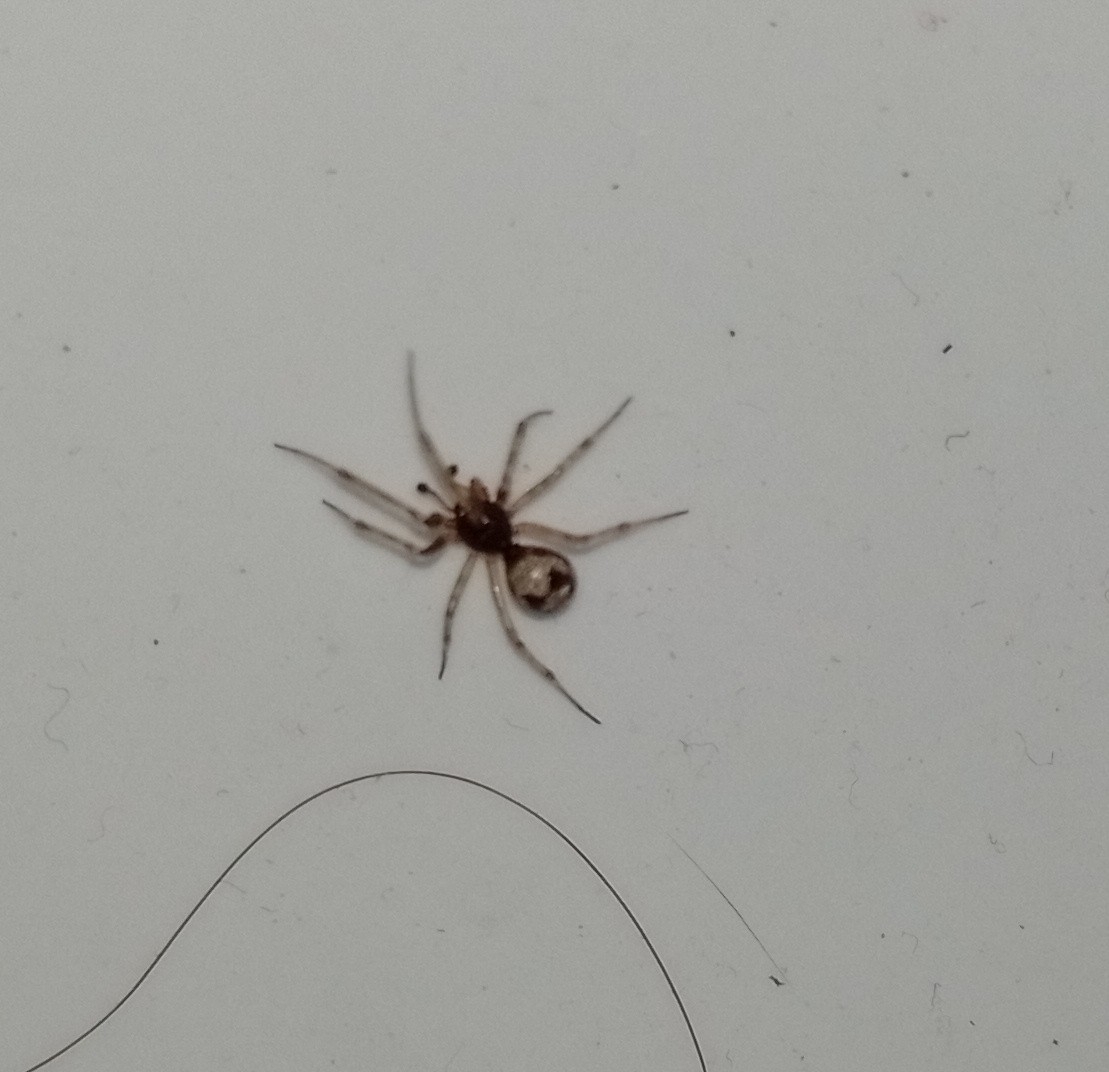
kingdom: Animalia
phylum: Arthropoda
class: Arachnida
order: Araneae
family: Theridiidae
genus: Steatoda
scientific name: Steatoda triangulosa
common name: Triangulate bud spider
